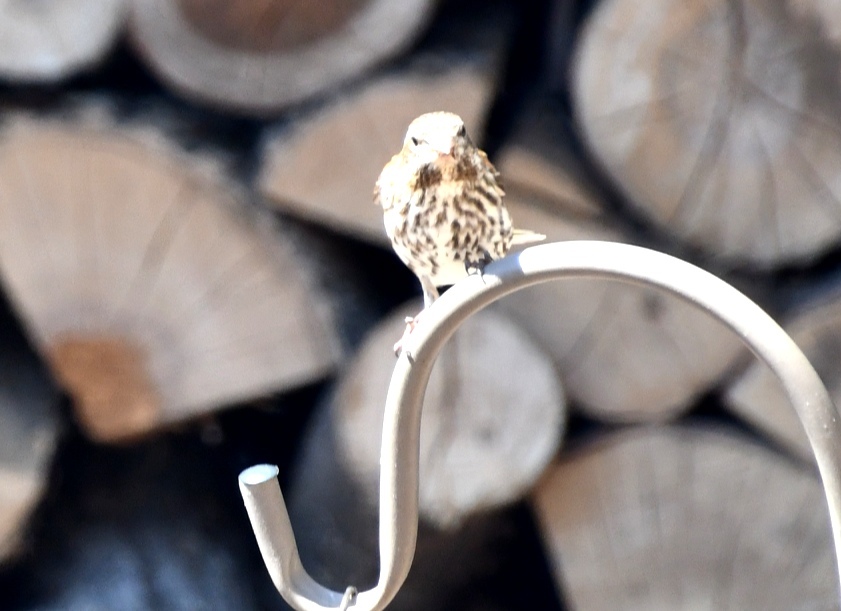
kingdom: Animalia
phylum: Chordata
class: Aves
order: Passeriformes
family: Fringillidae
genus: Haemorhous
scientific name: Haemorhous purpureus
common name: Purple finch
